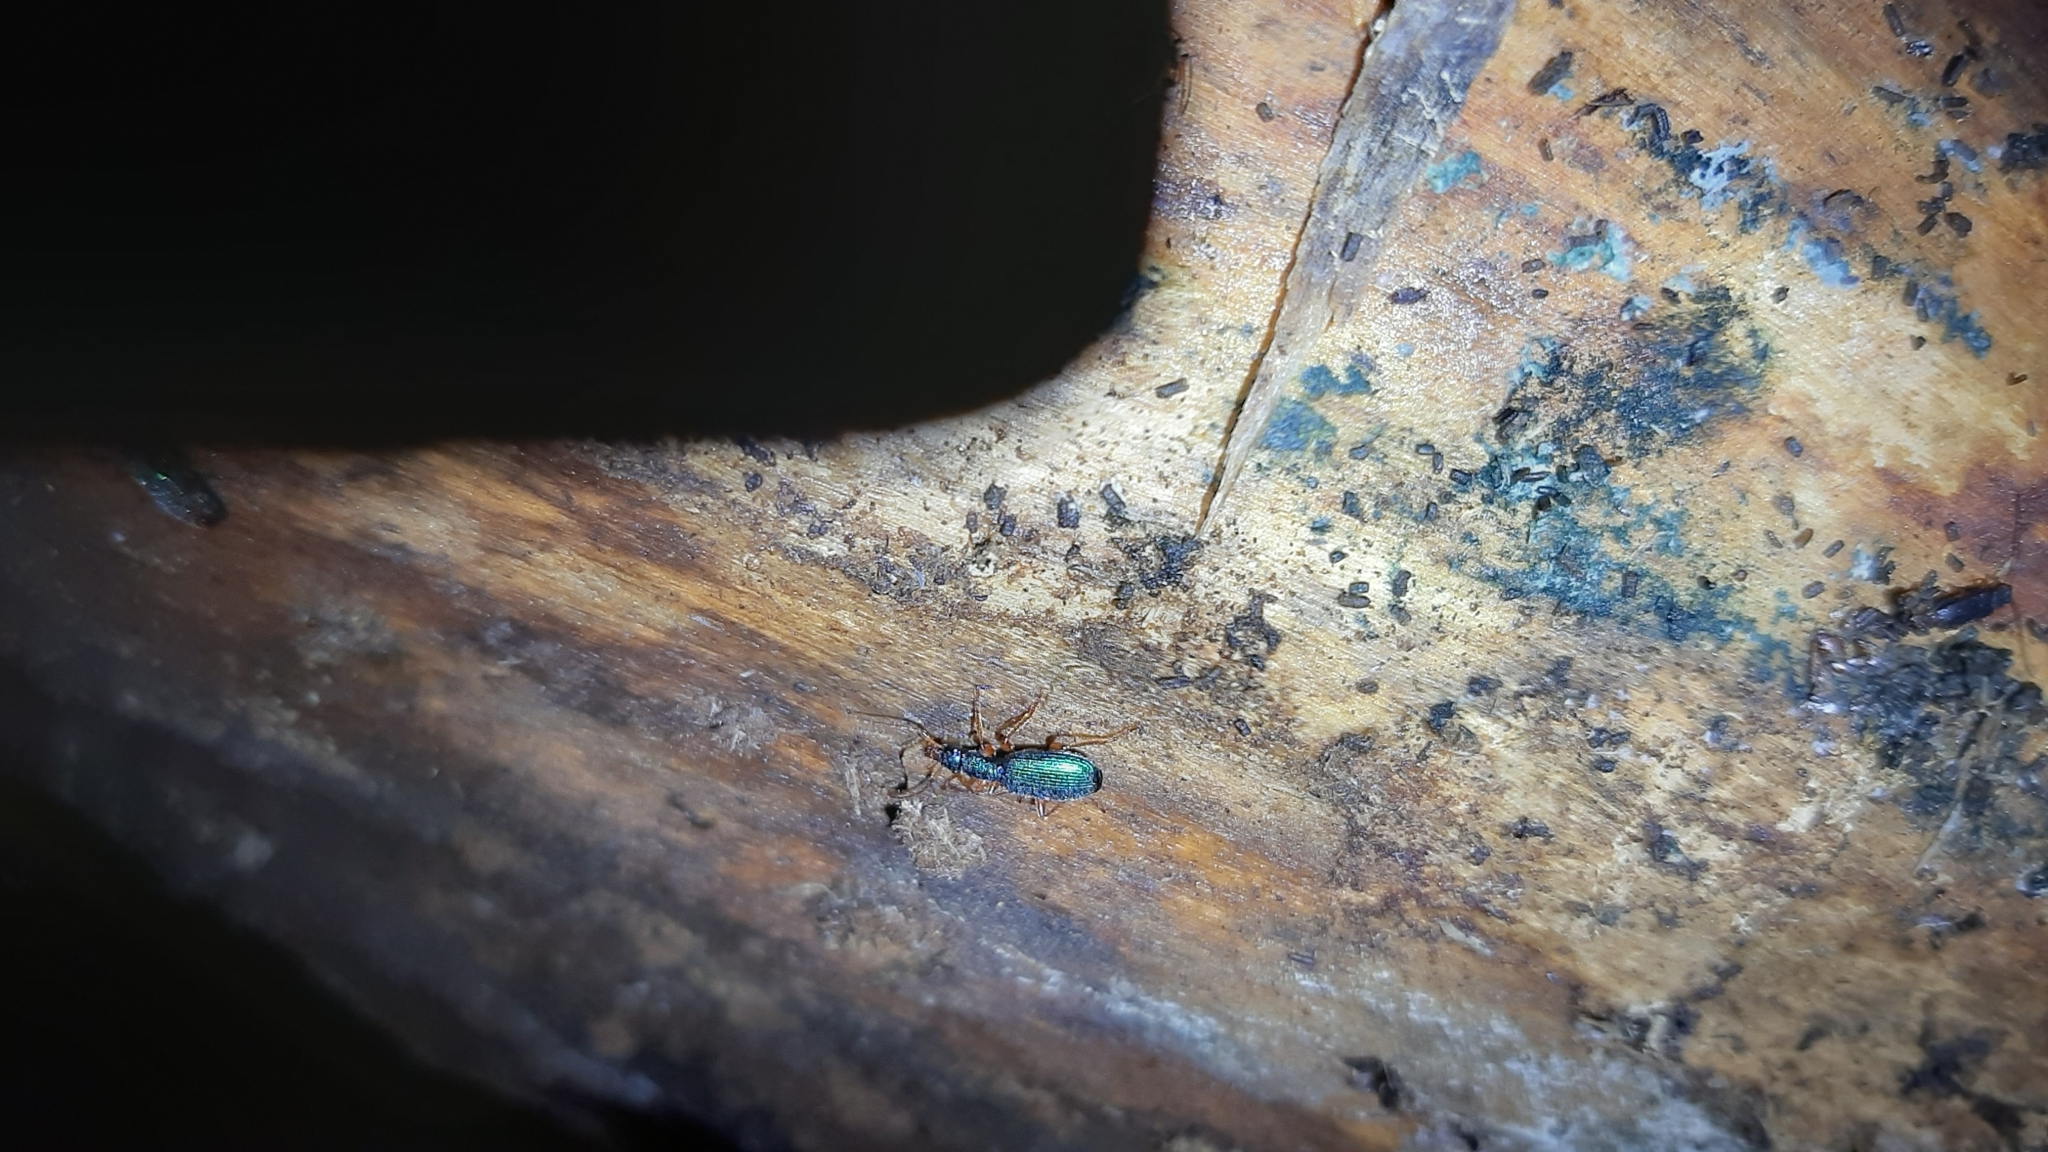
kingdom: Animalia
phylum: Arthropoda
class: Insecta
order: Coleoptera
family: Carabidae
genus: Drypta
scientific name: Drypta dentata
